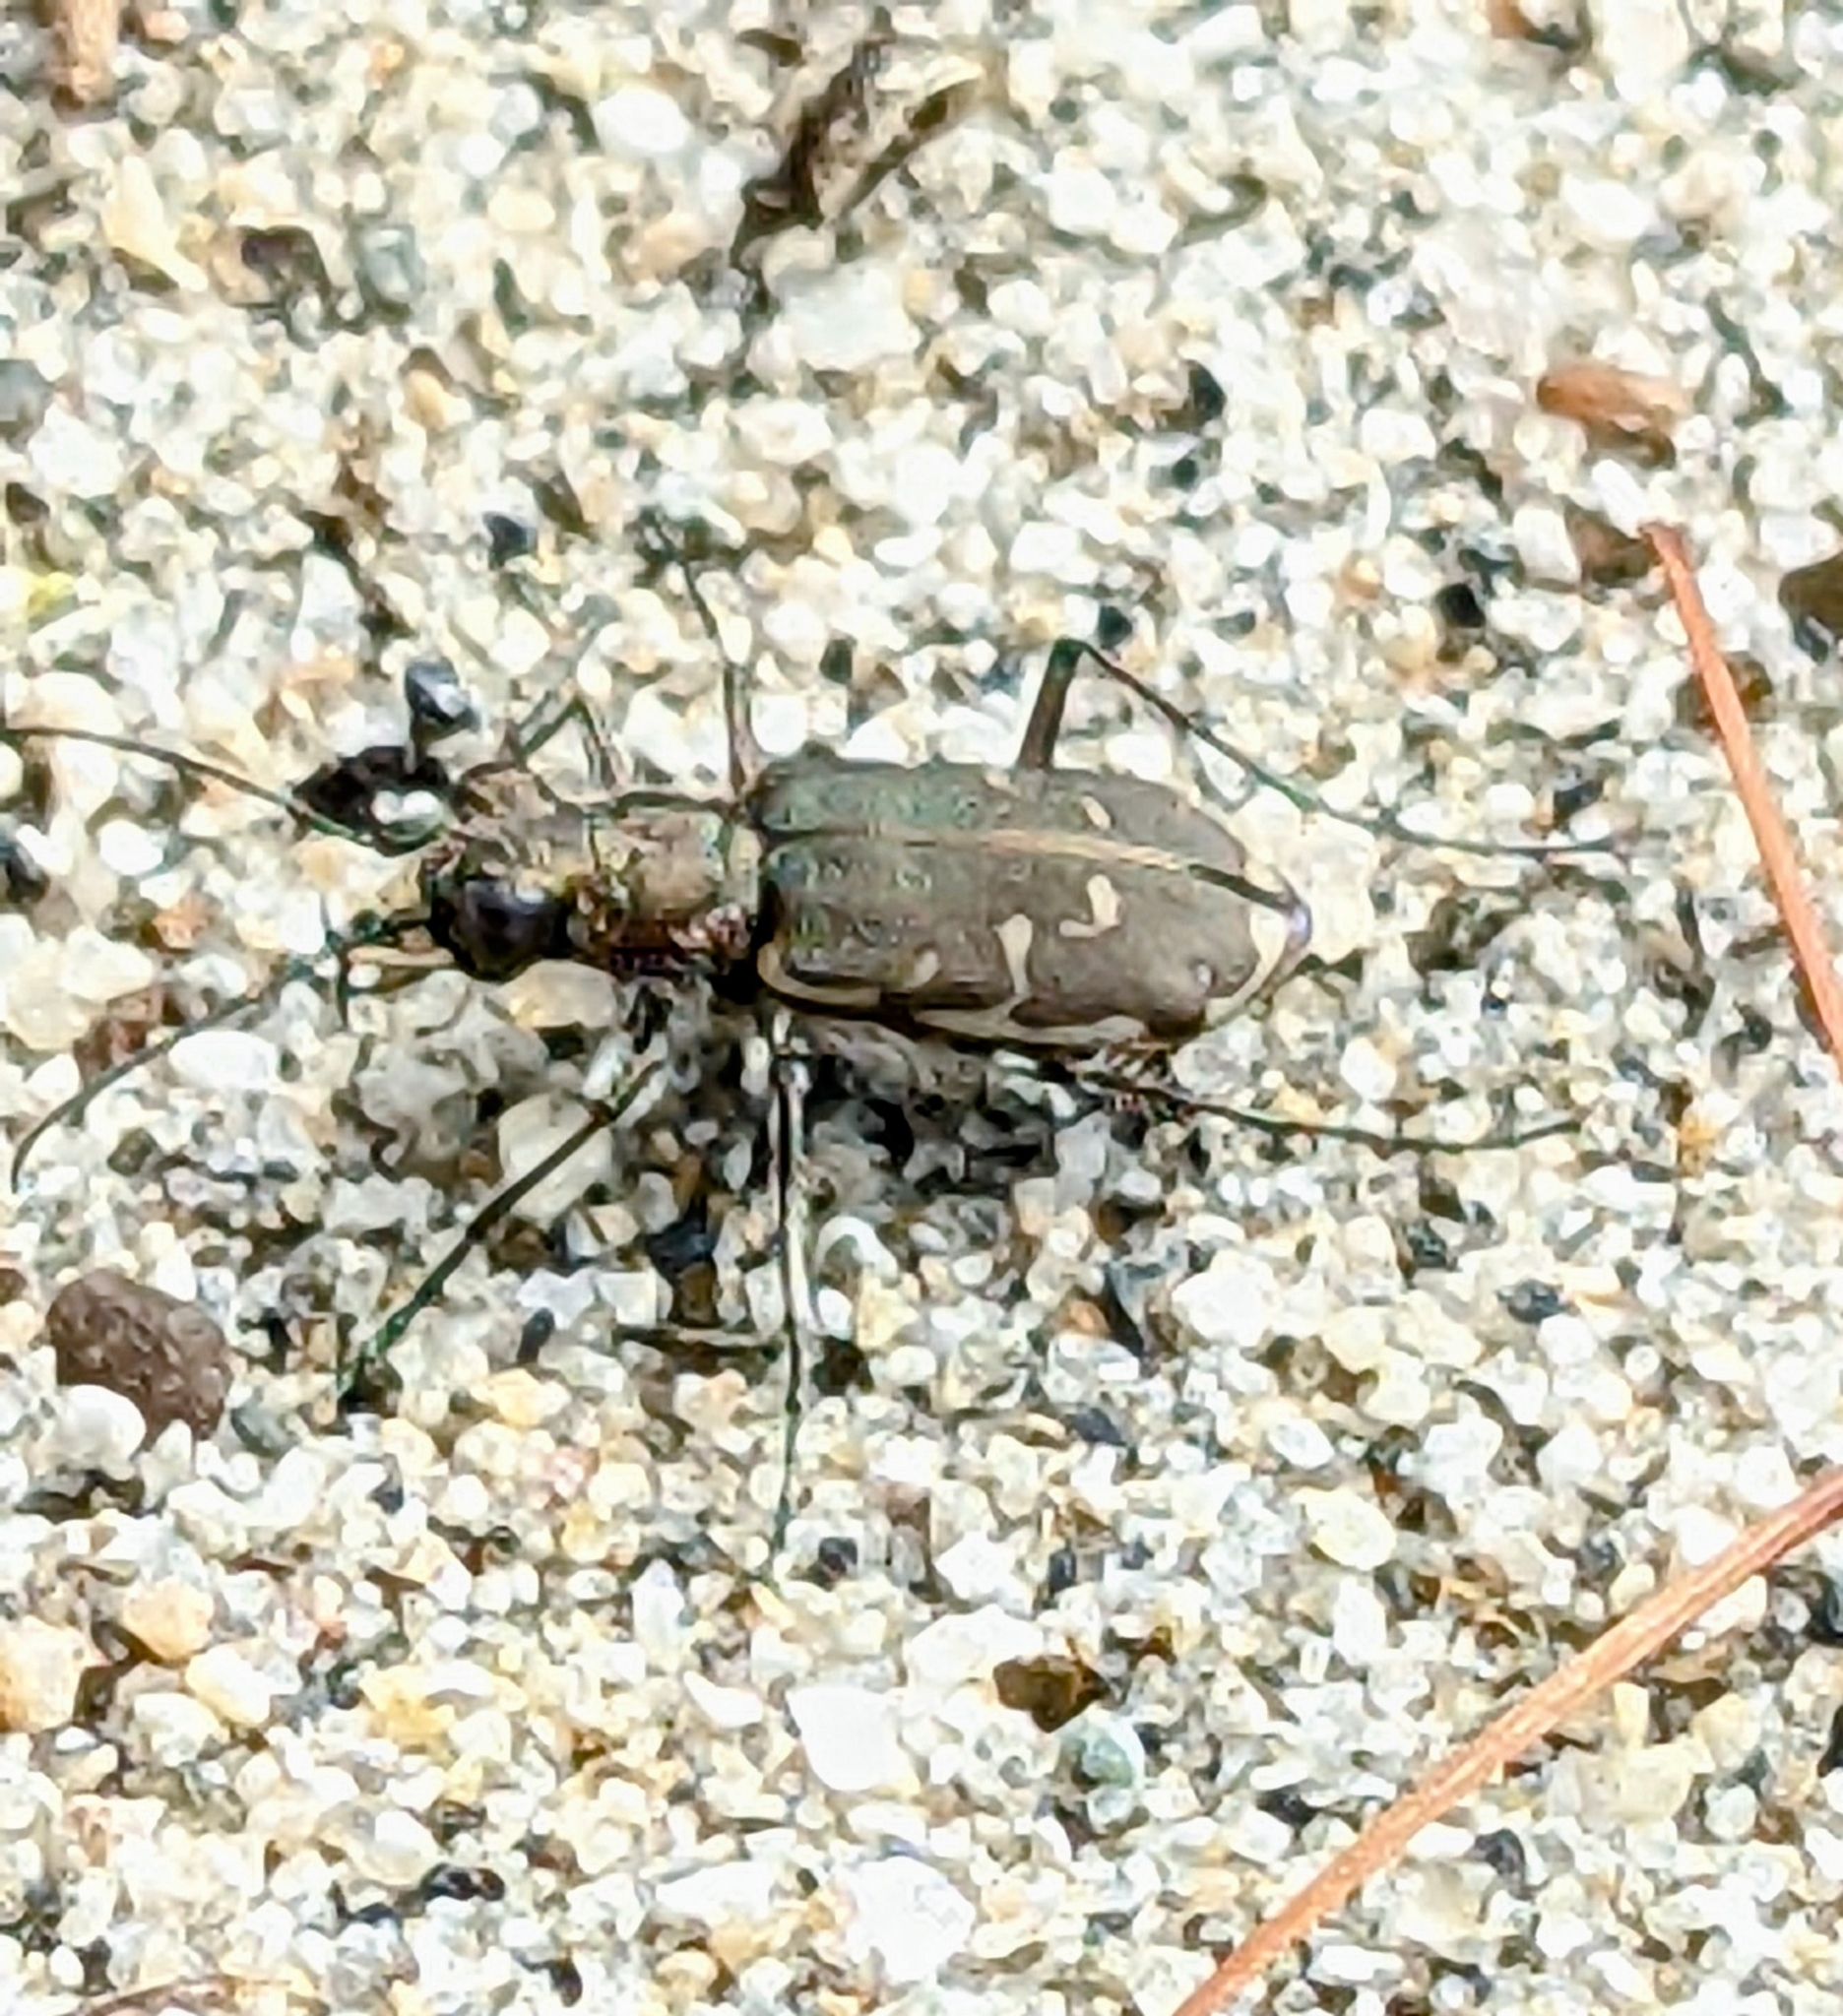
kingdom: Animalia
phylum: Arthropoda
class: Insecta
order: Coleoptera
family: Carabidae
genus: Cicindela
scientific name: Cicindela repanda
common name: Bronzed tiger beetle
